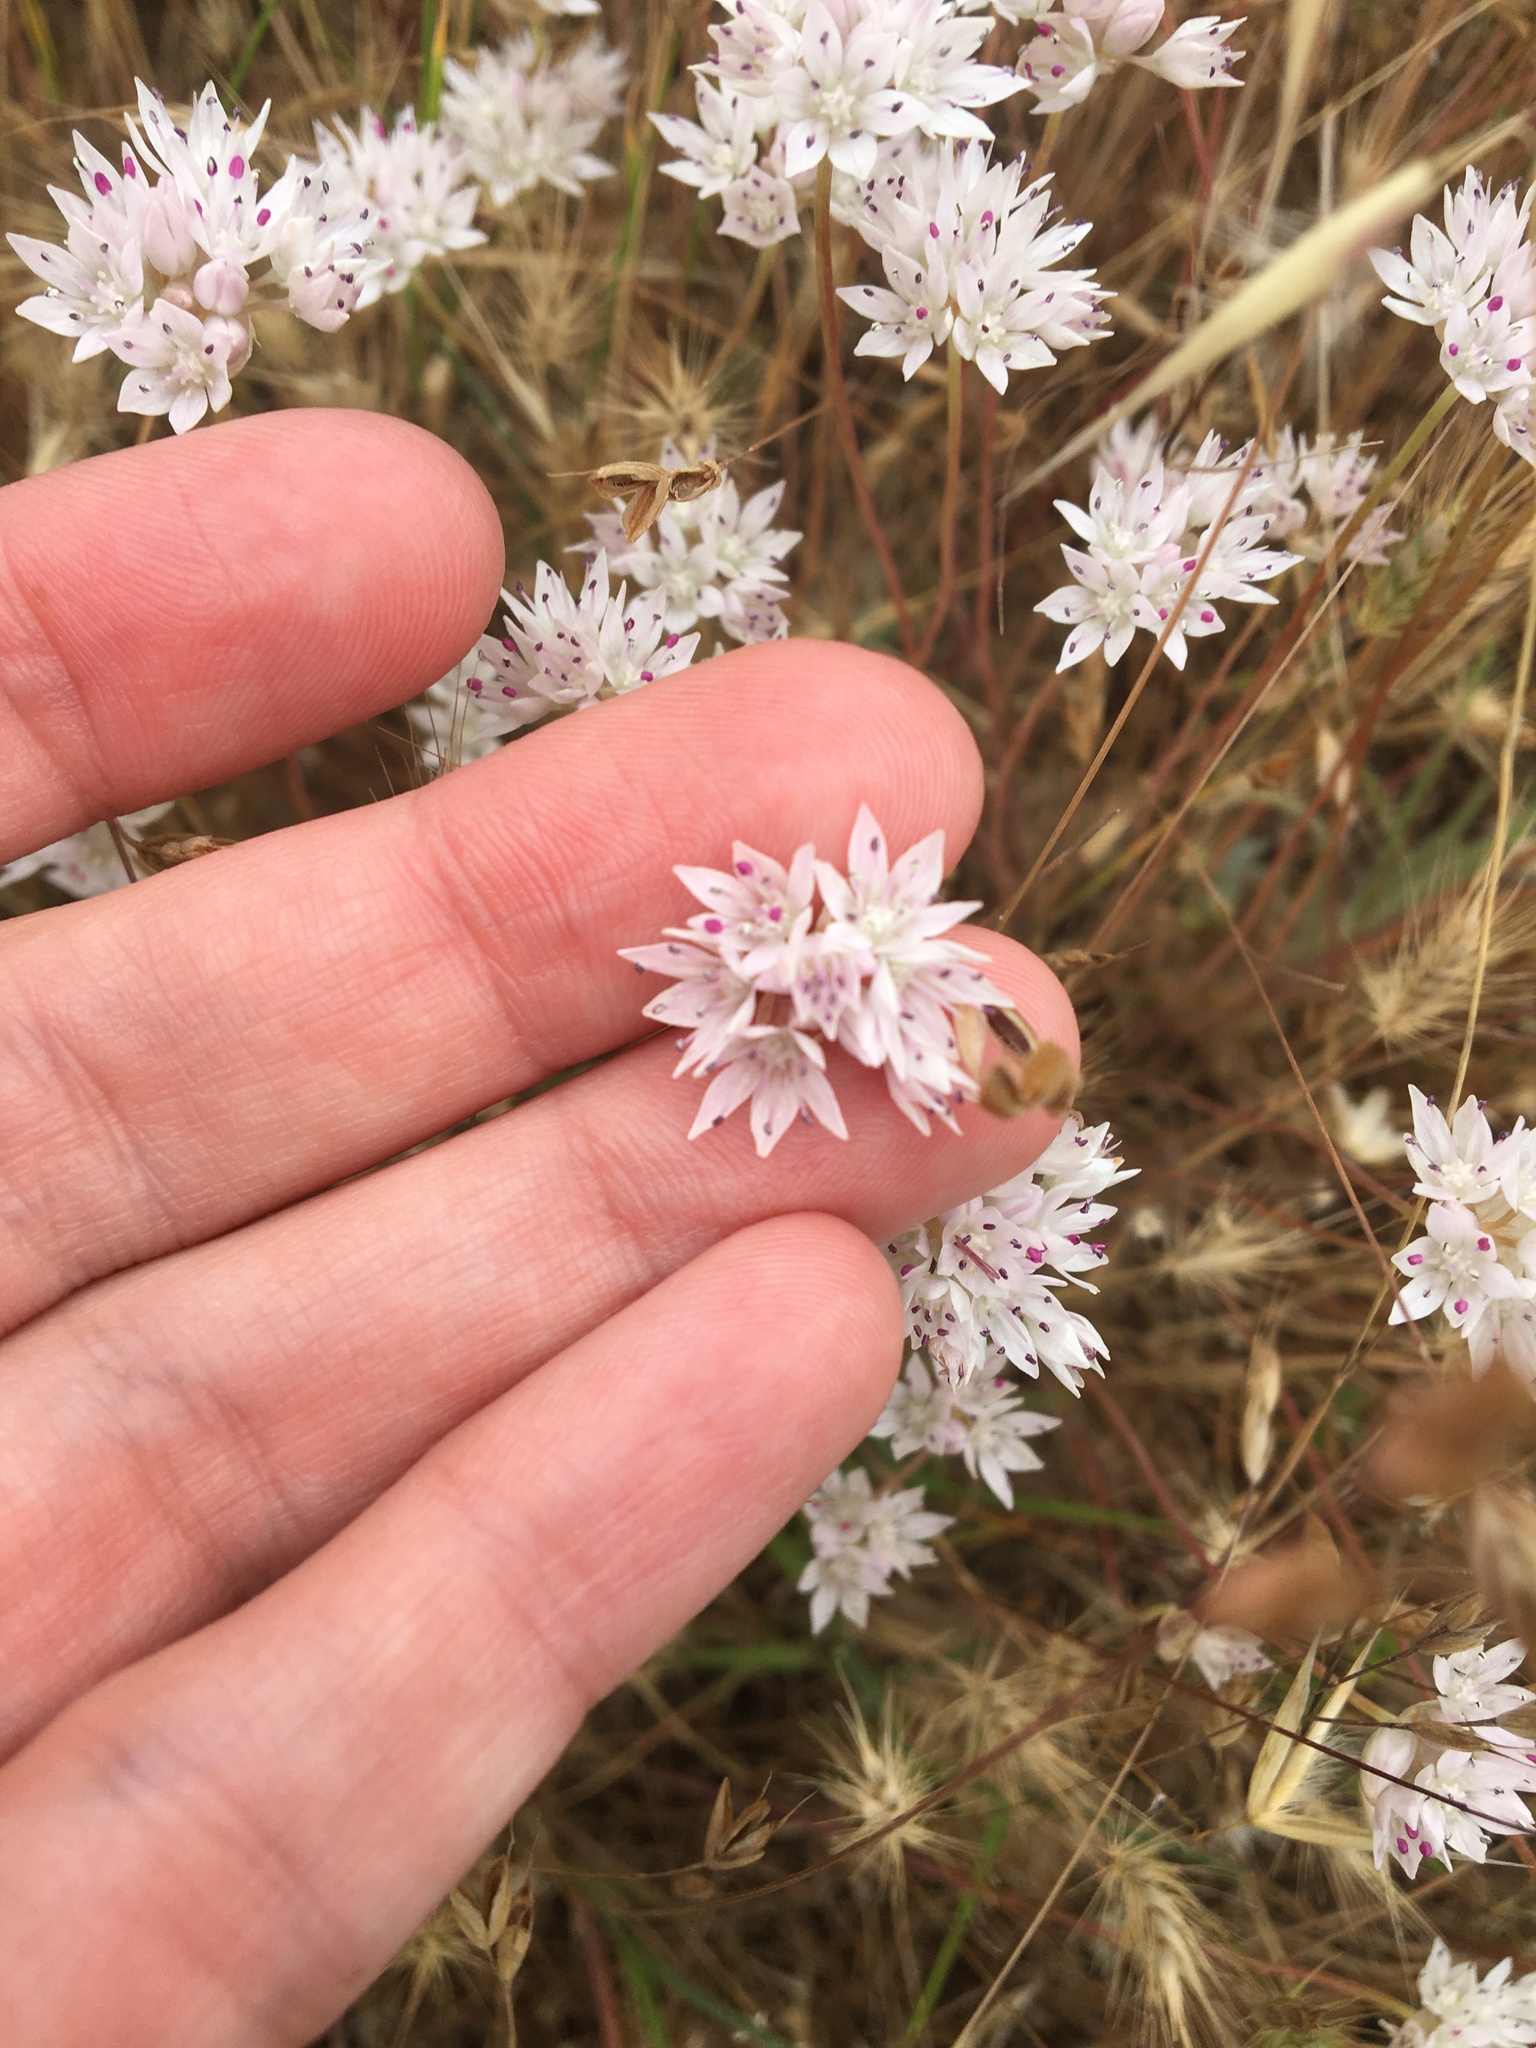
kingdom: Plantae
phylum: Tracheophyta
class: Liliopsida
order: Asparagales
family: Amaryllidaceae
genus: Allium
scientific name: Allium amplectens
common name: Narrow-leaved onion
